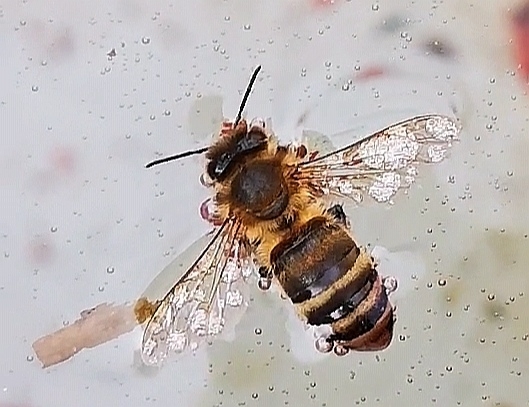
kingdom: Animalia
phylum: Arthropoda
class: Insecta
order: Hymenoptera
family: Apidae
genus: Apis
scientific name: Apis mellifera
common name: Honey bee
